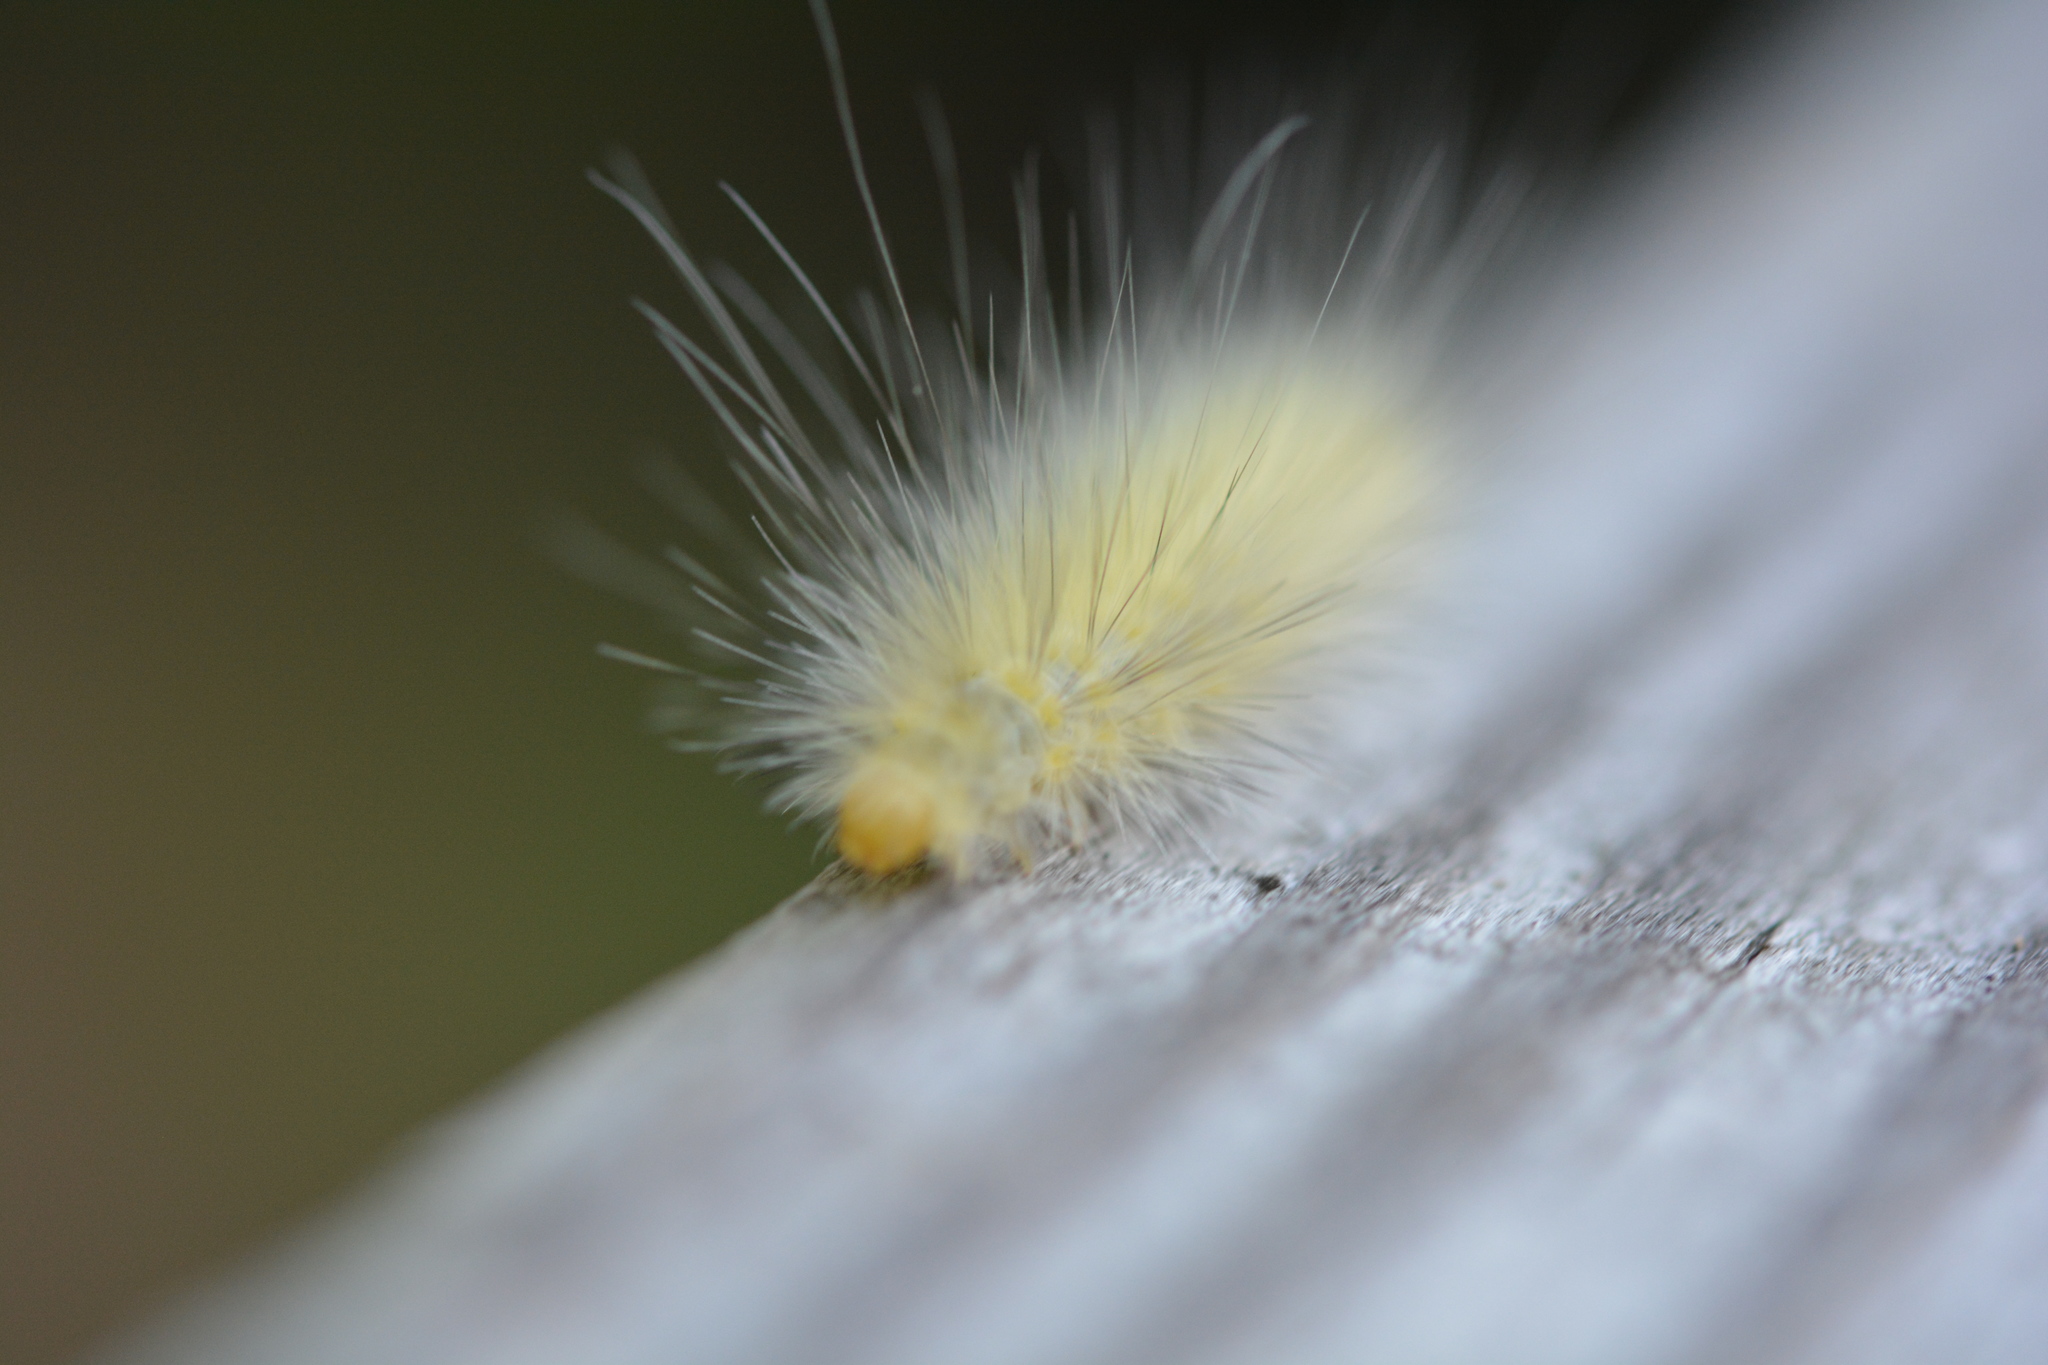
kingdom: Animalia
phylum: Arthropoda
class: Insecta
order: Lepidoptera
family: Erebidae
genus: Spilosoma
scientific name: Spilosoma virginica
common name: Virginia tiger moth
